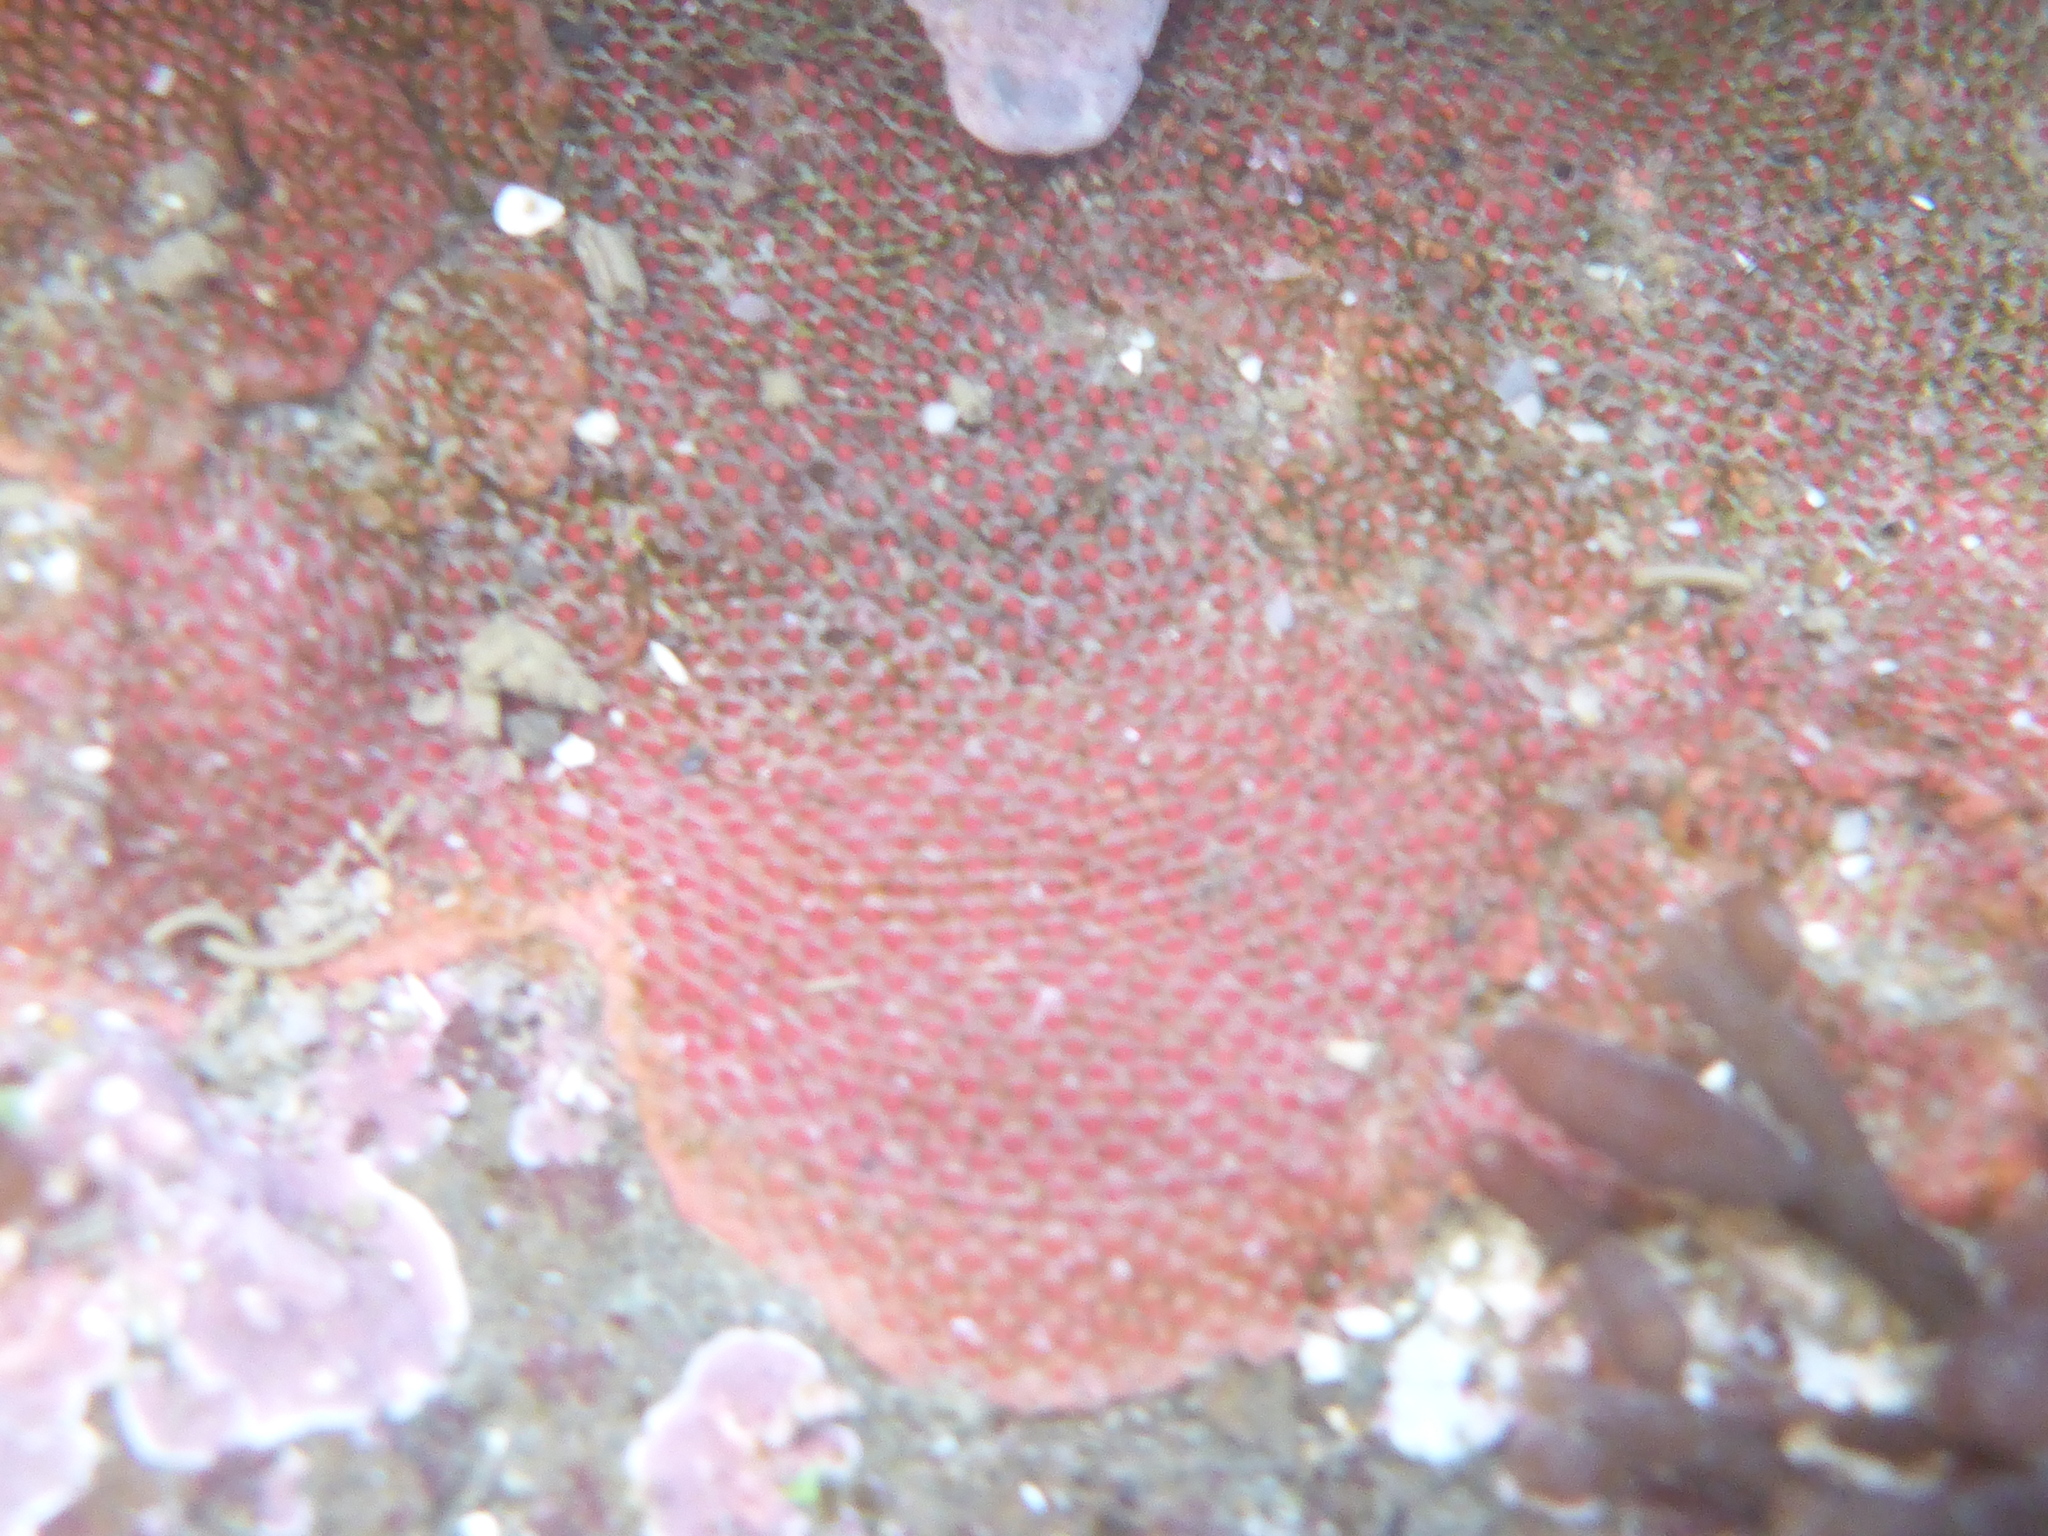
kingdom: Animalia
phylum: Bryozoa
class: Gymnolaemata
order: Cheilostomatida
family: Eurystomellidae
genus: Integripelta
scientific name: Integripelta bilabiata
